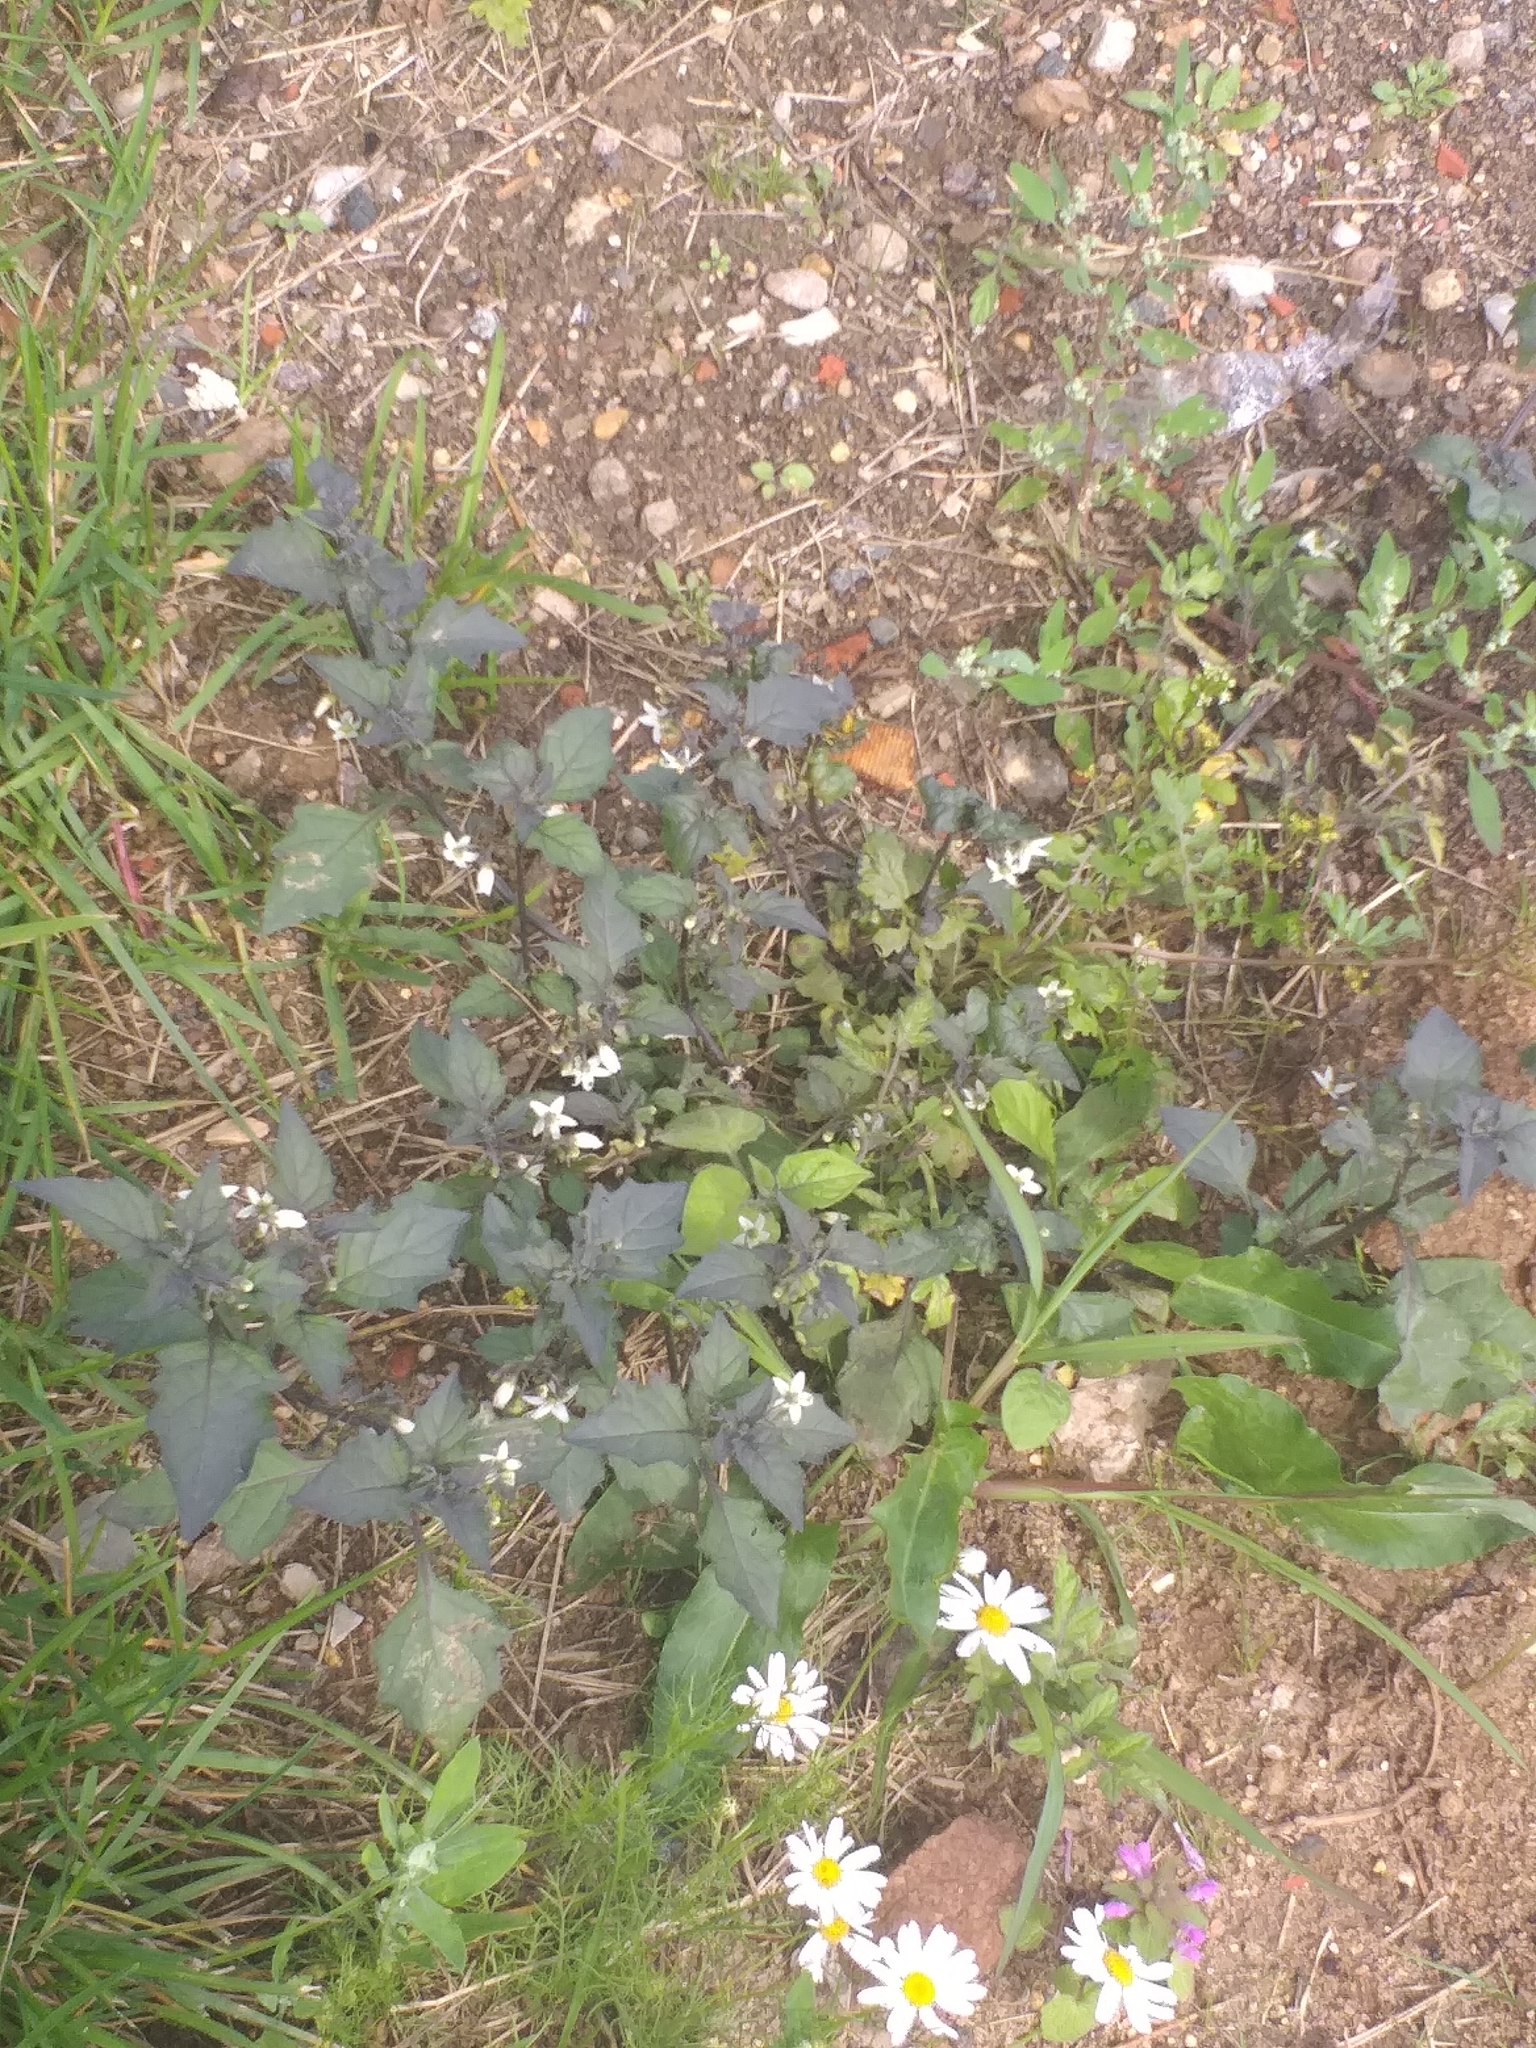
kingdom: Plantae
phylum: Tracheophyta
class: Magnoliopsida
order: Solanales
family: Solanaceae
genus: Solanum
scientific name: Solanum nigrum
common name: Black nightshade
